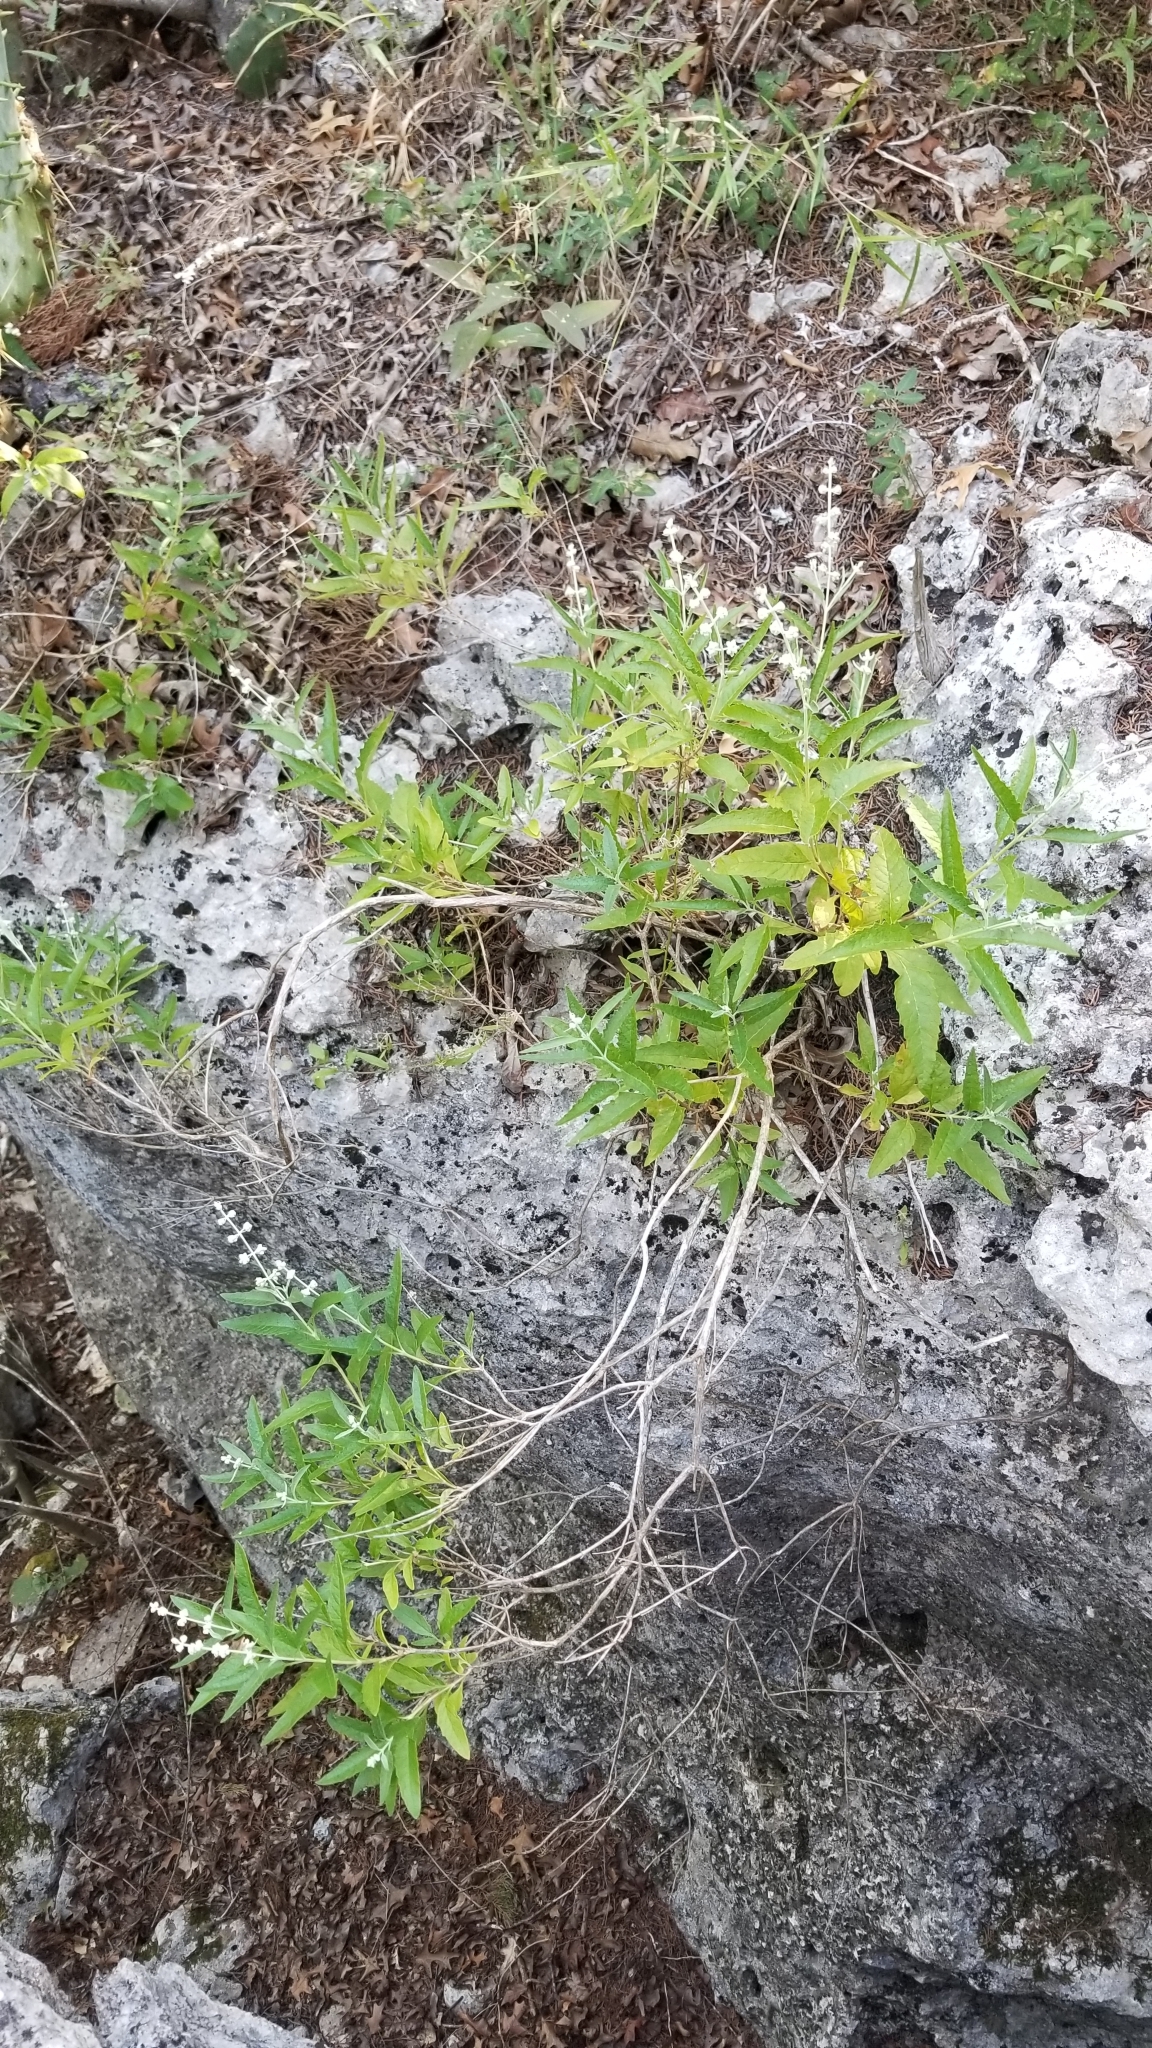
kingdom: Plantae
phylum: Tracheophyta
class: Magnoliopsida
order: Lamiales
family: Scrophulariaceae
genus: Buddleja
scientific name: Buddleja racemosa
